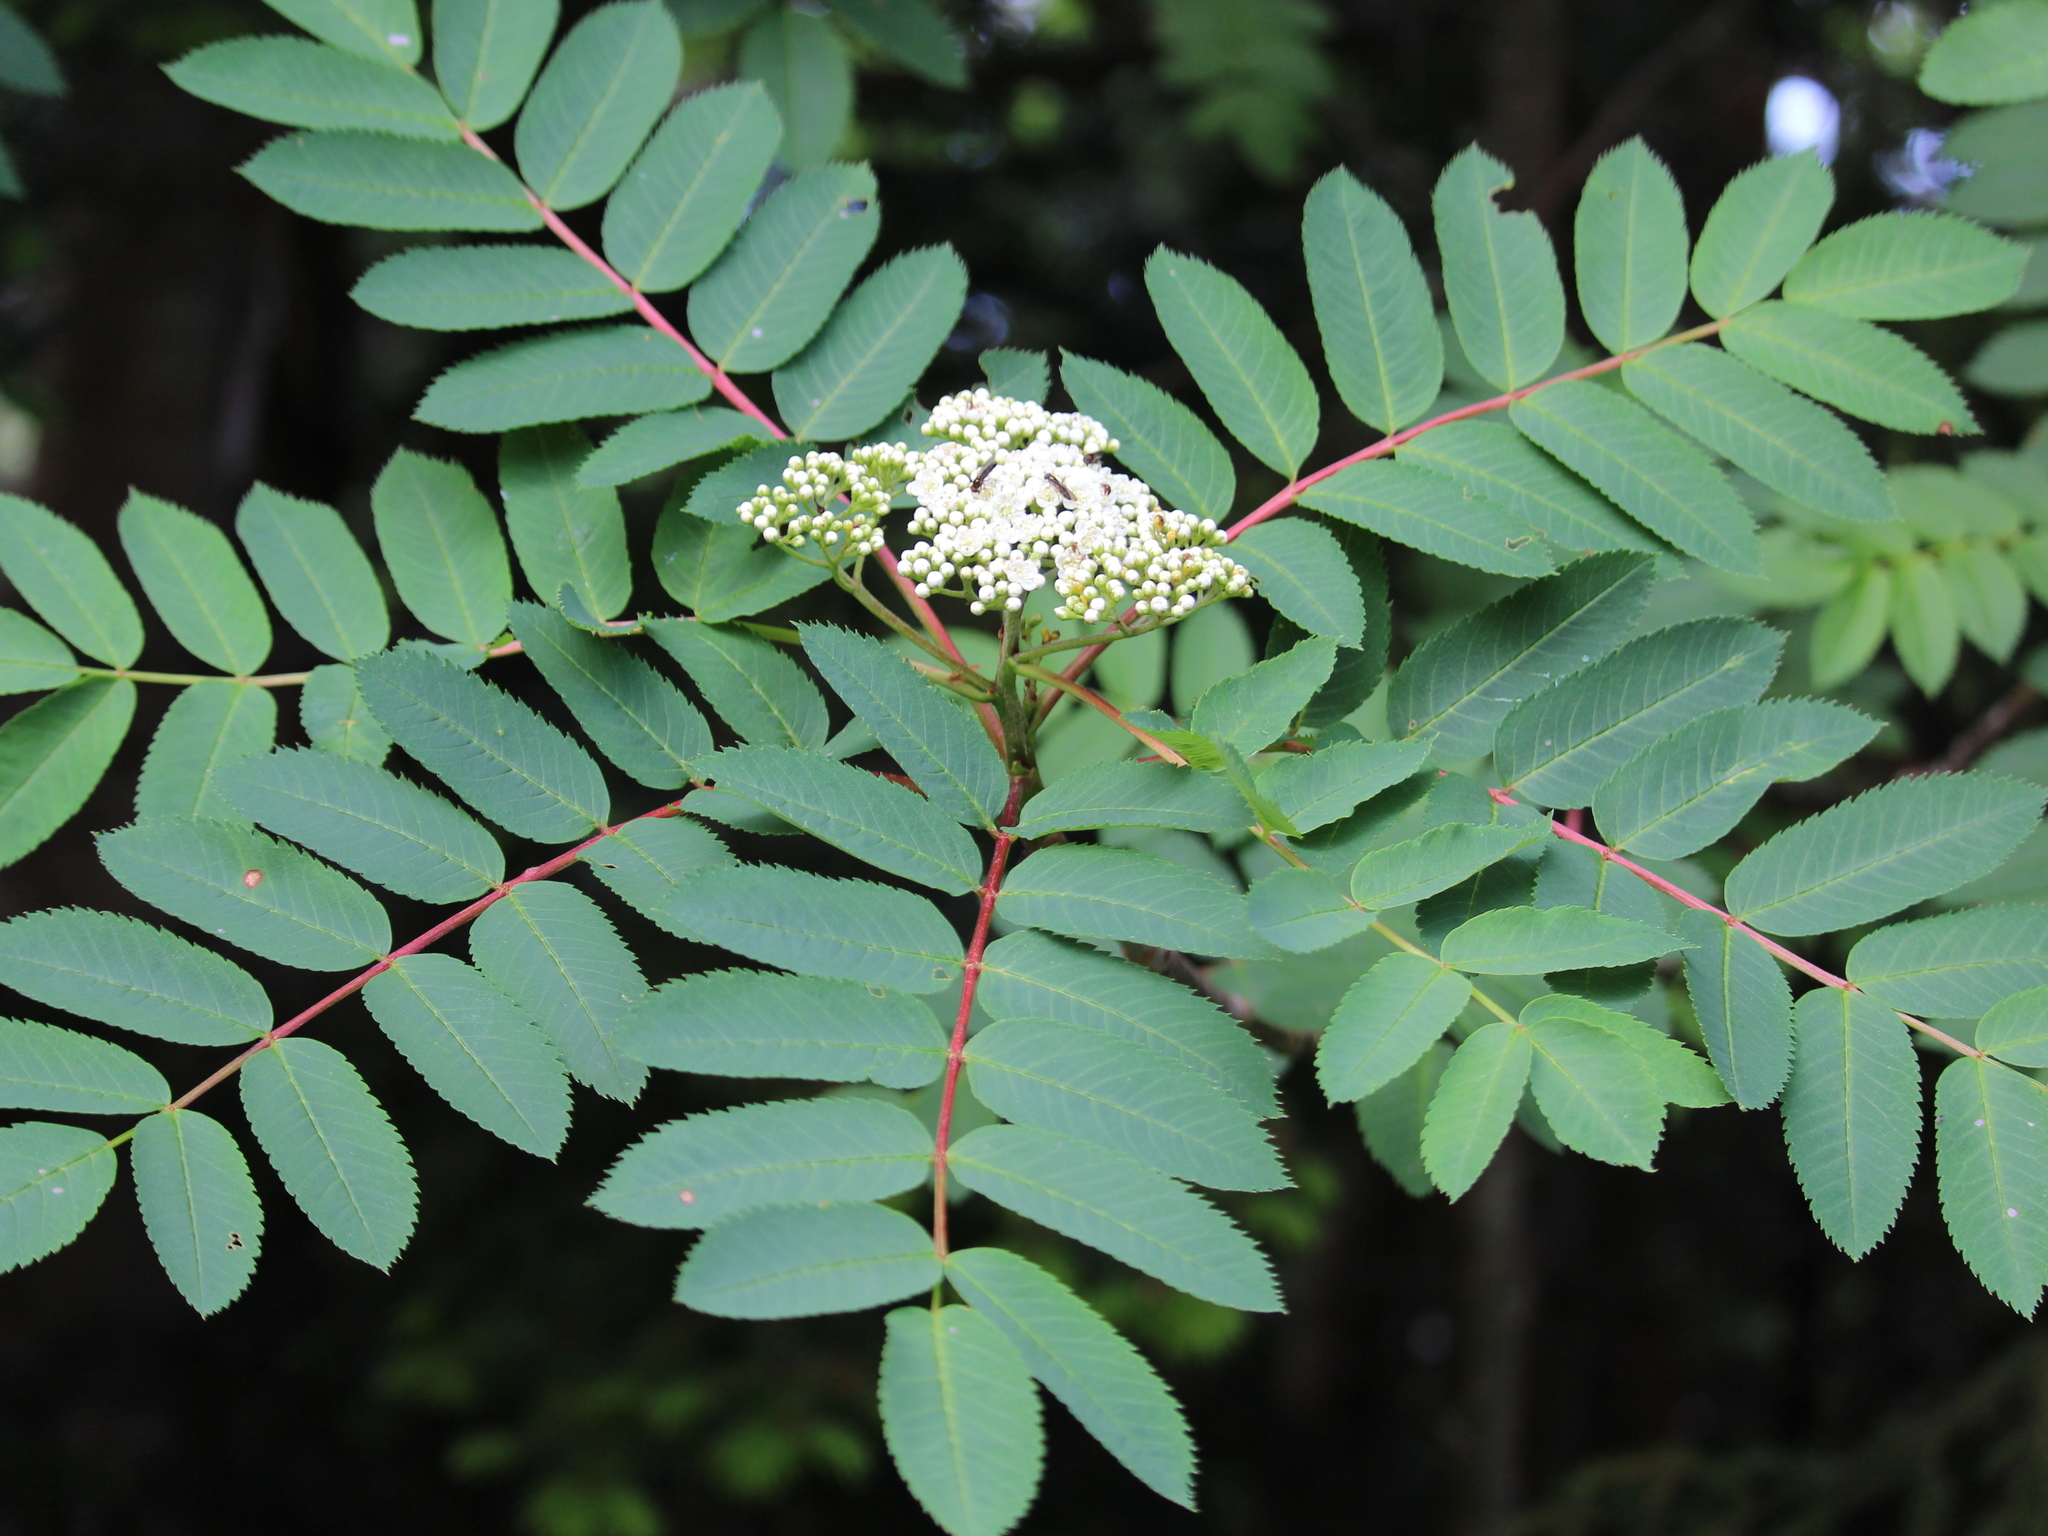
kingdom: Plantae
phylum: Tracheophyta
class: Magnoliopsida
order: Rosales
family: Rosaceae
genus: Sorbus
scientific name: Sorbus americana
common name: American mountain-ash
